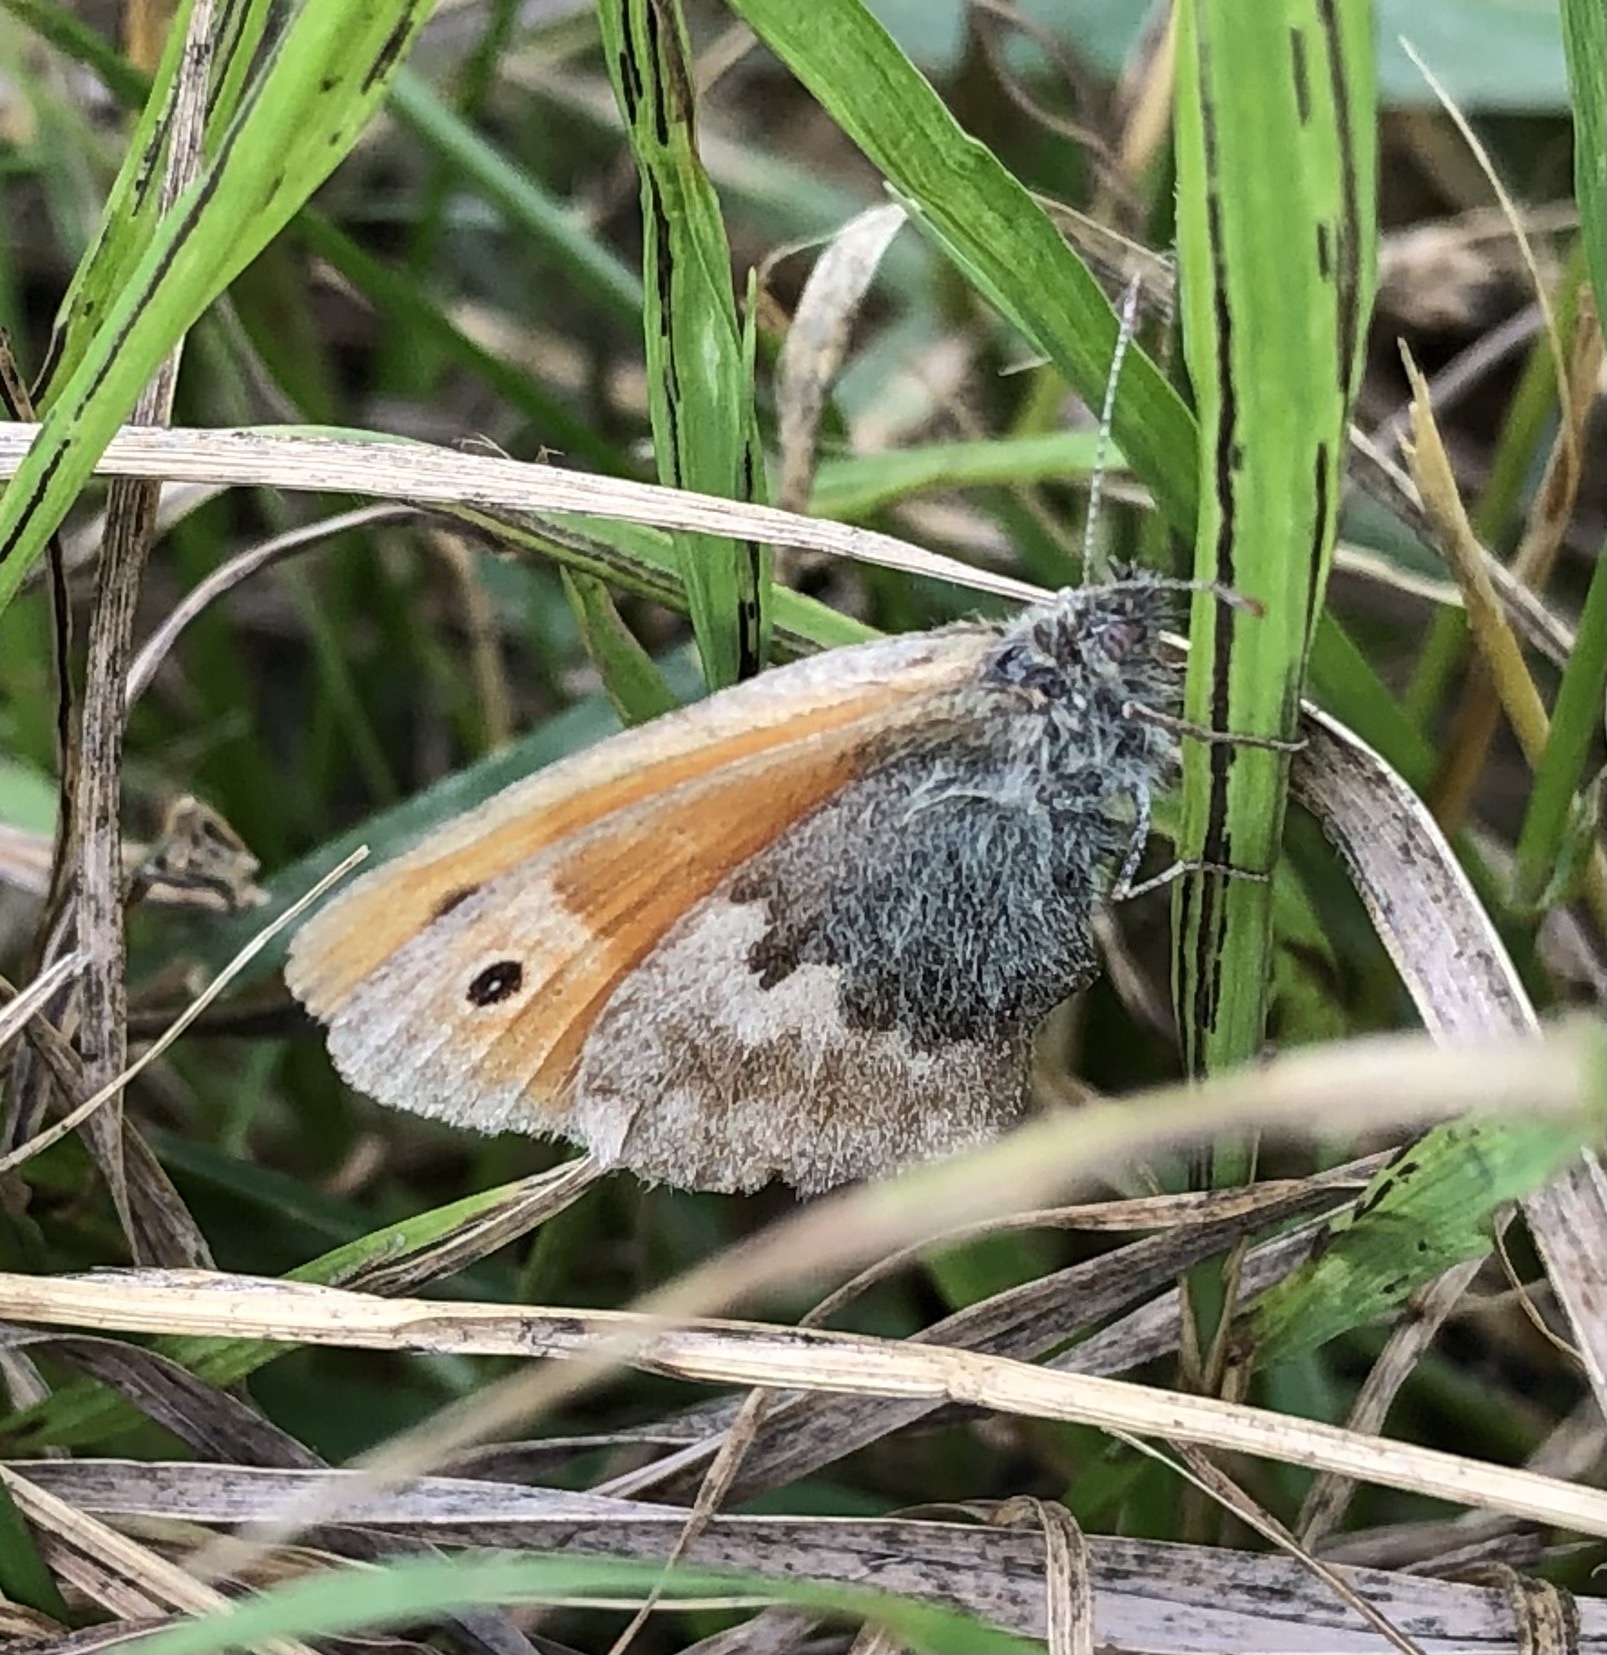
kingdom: Animalia
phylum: Arthropoda
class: Insecta
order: Lepidoptera
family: Nymphalidae
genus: Coenonympha
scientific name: Coenonympha pamphilus
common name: Small heath
